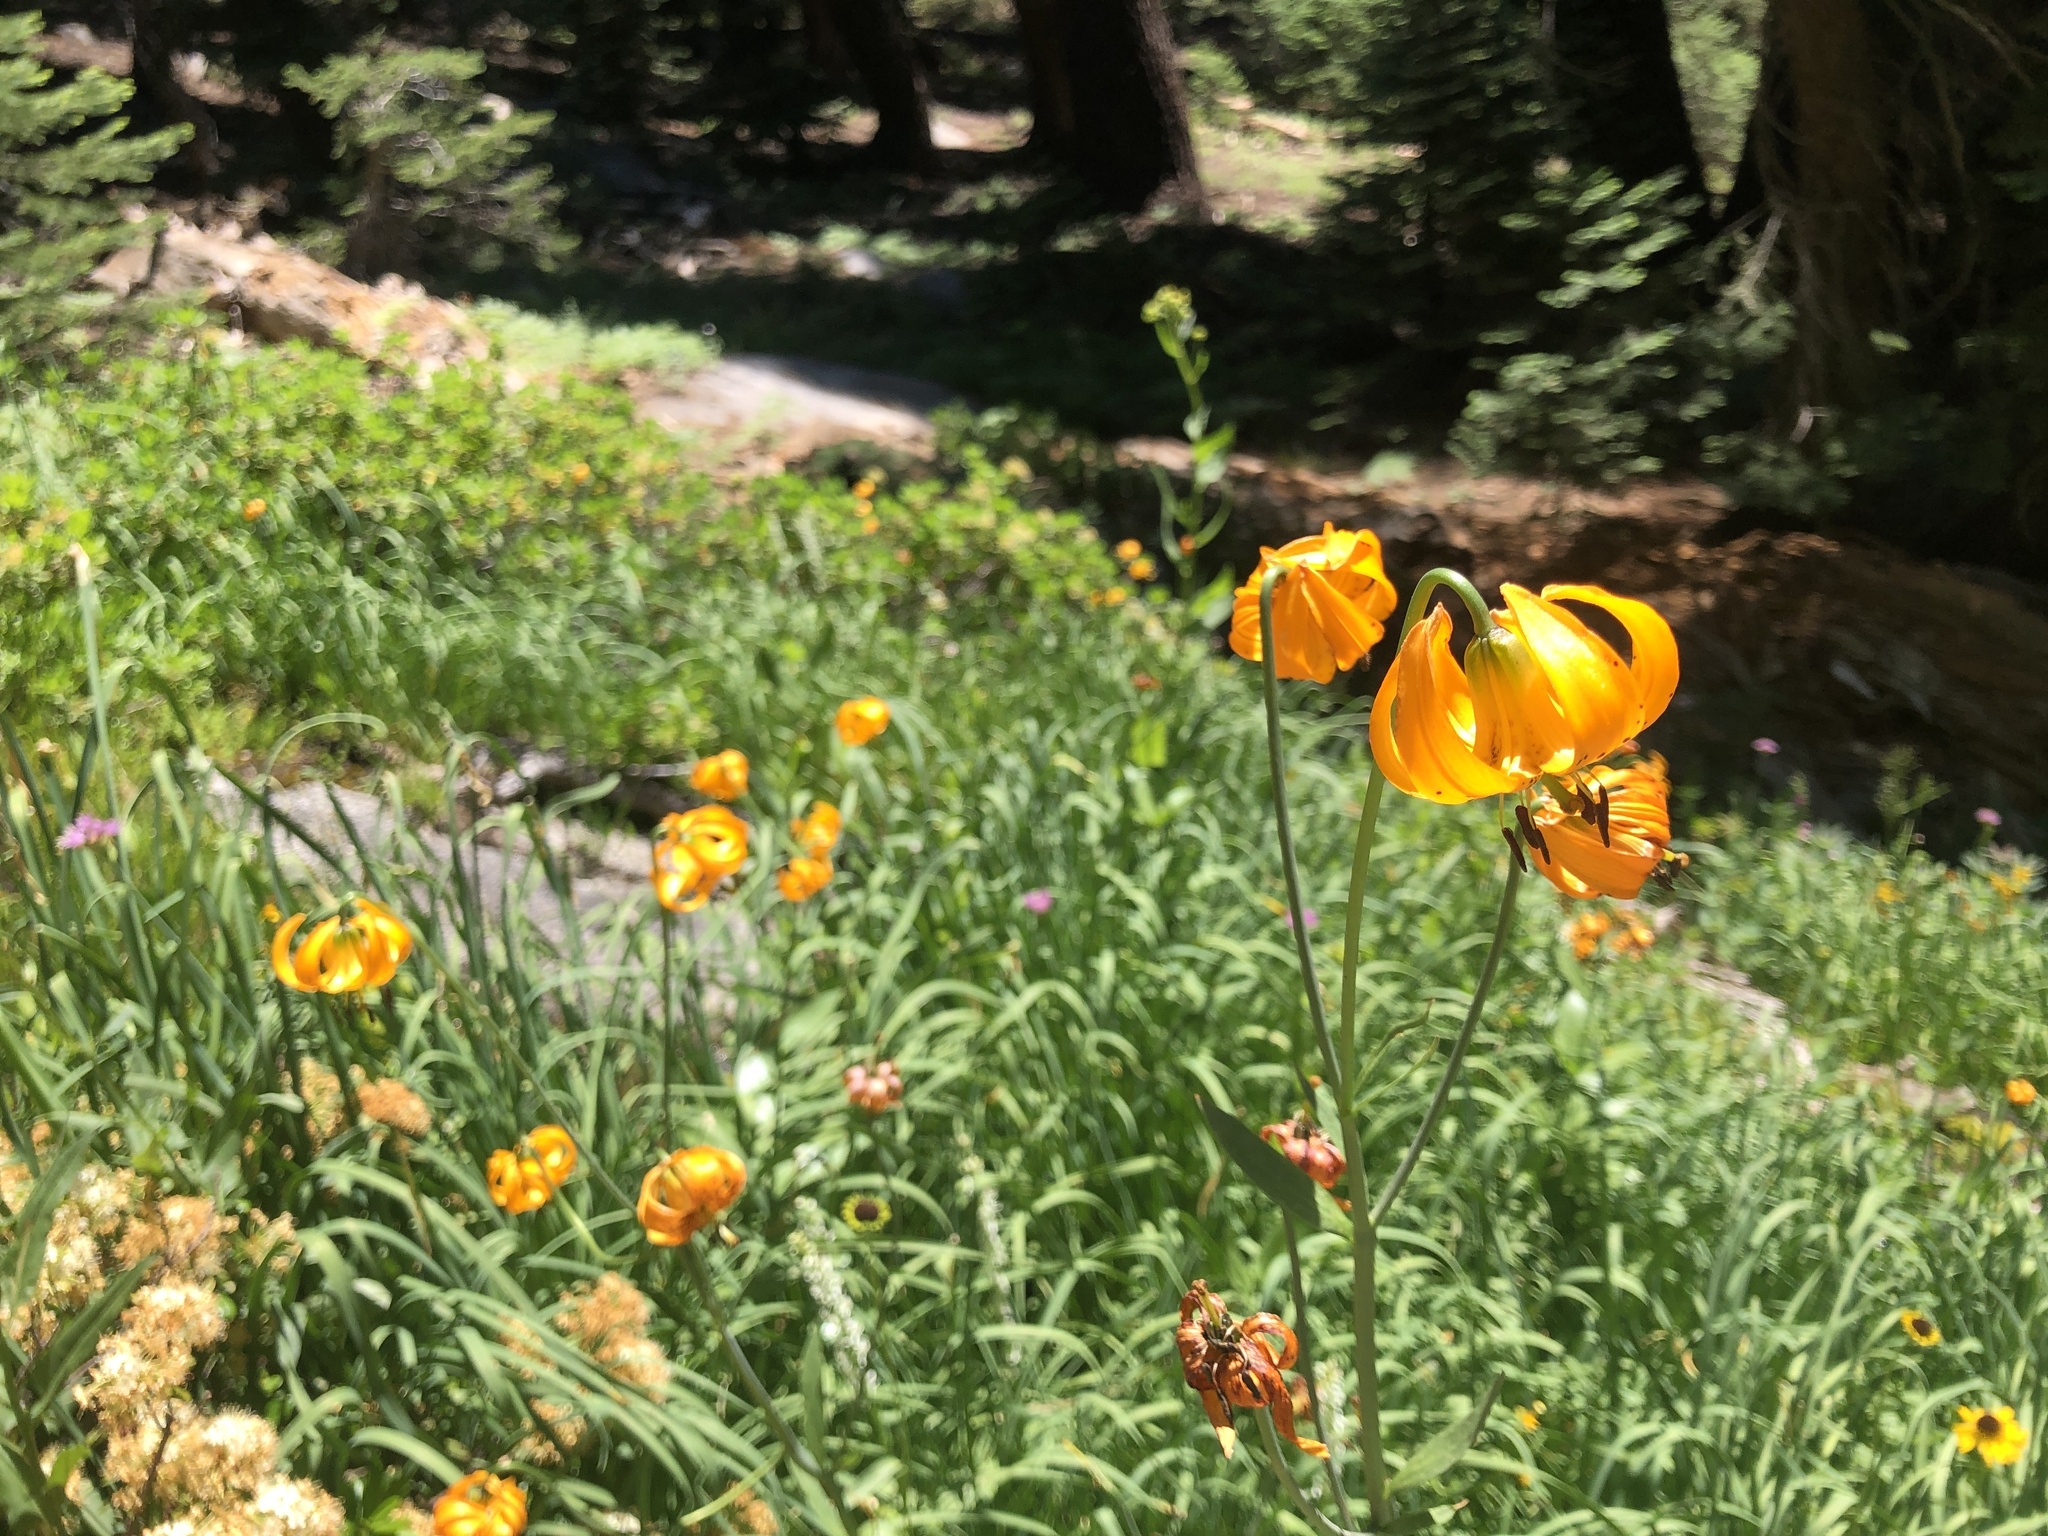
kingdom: Plantae
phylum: Tracheophyta
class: Liliopsida
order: Liliales
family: Liliaceae
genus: Lilium
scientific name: Lilium kelleyanum
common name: Kelley's lily
